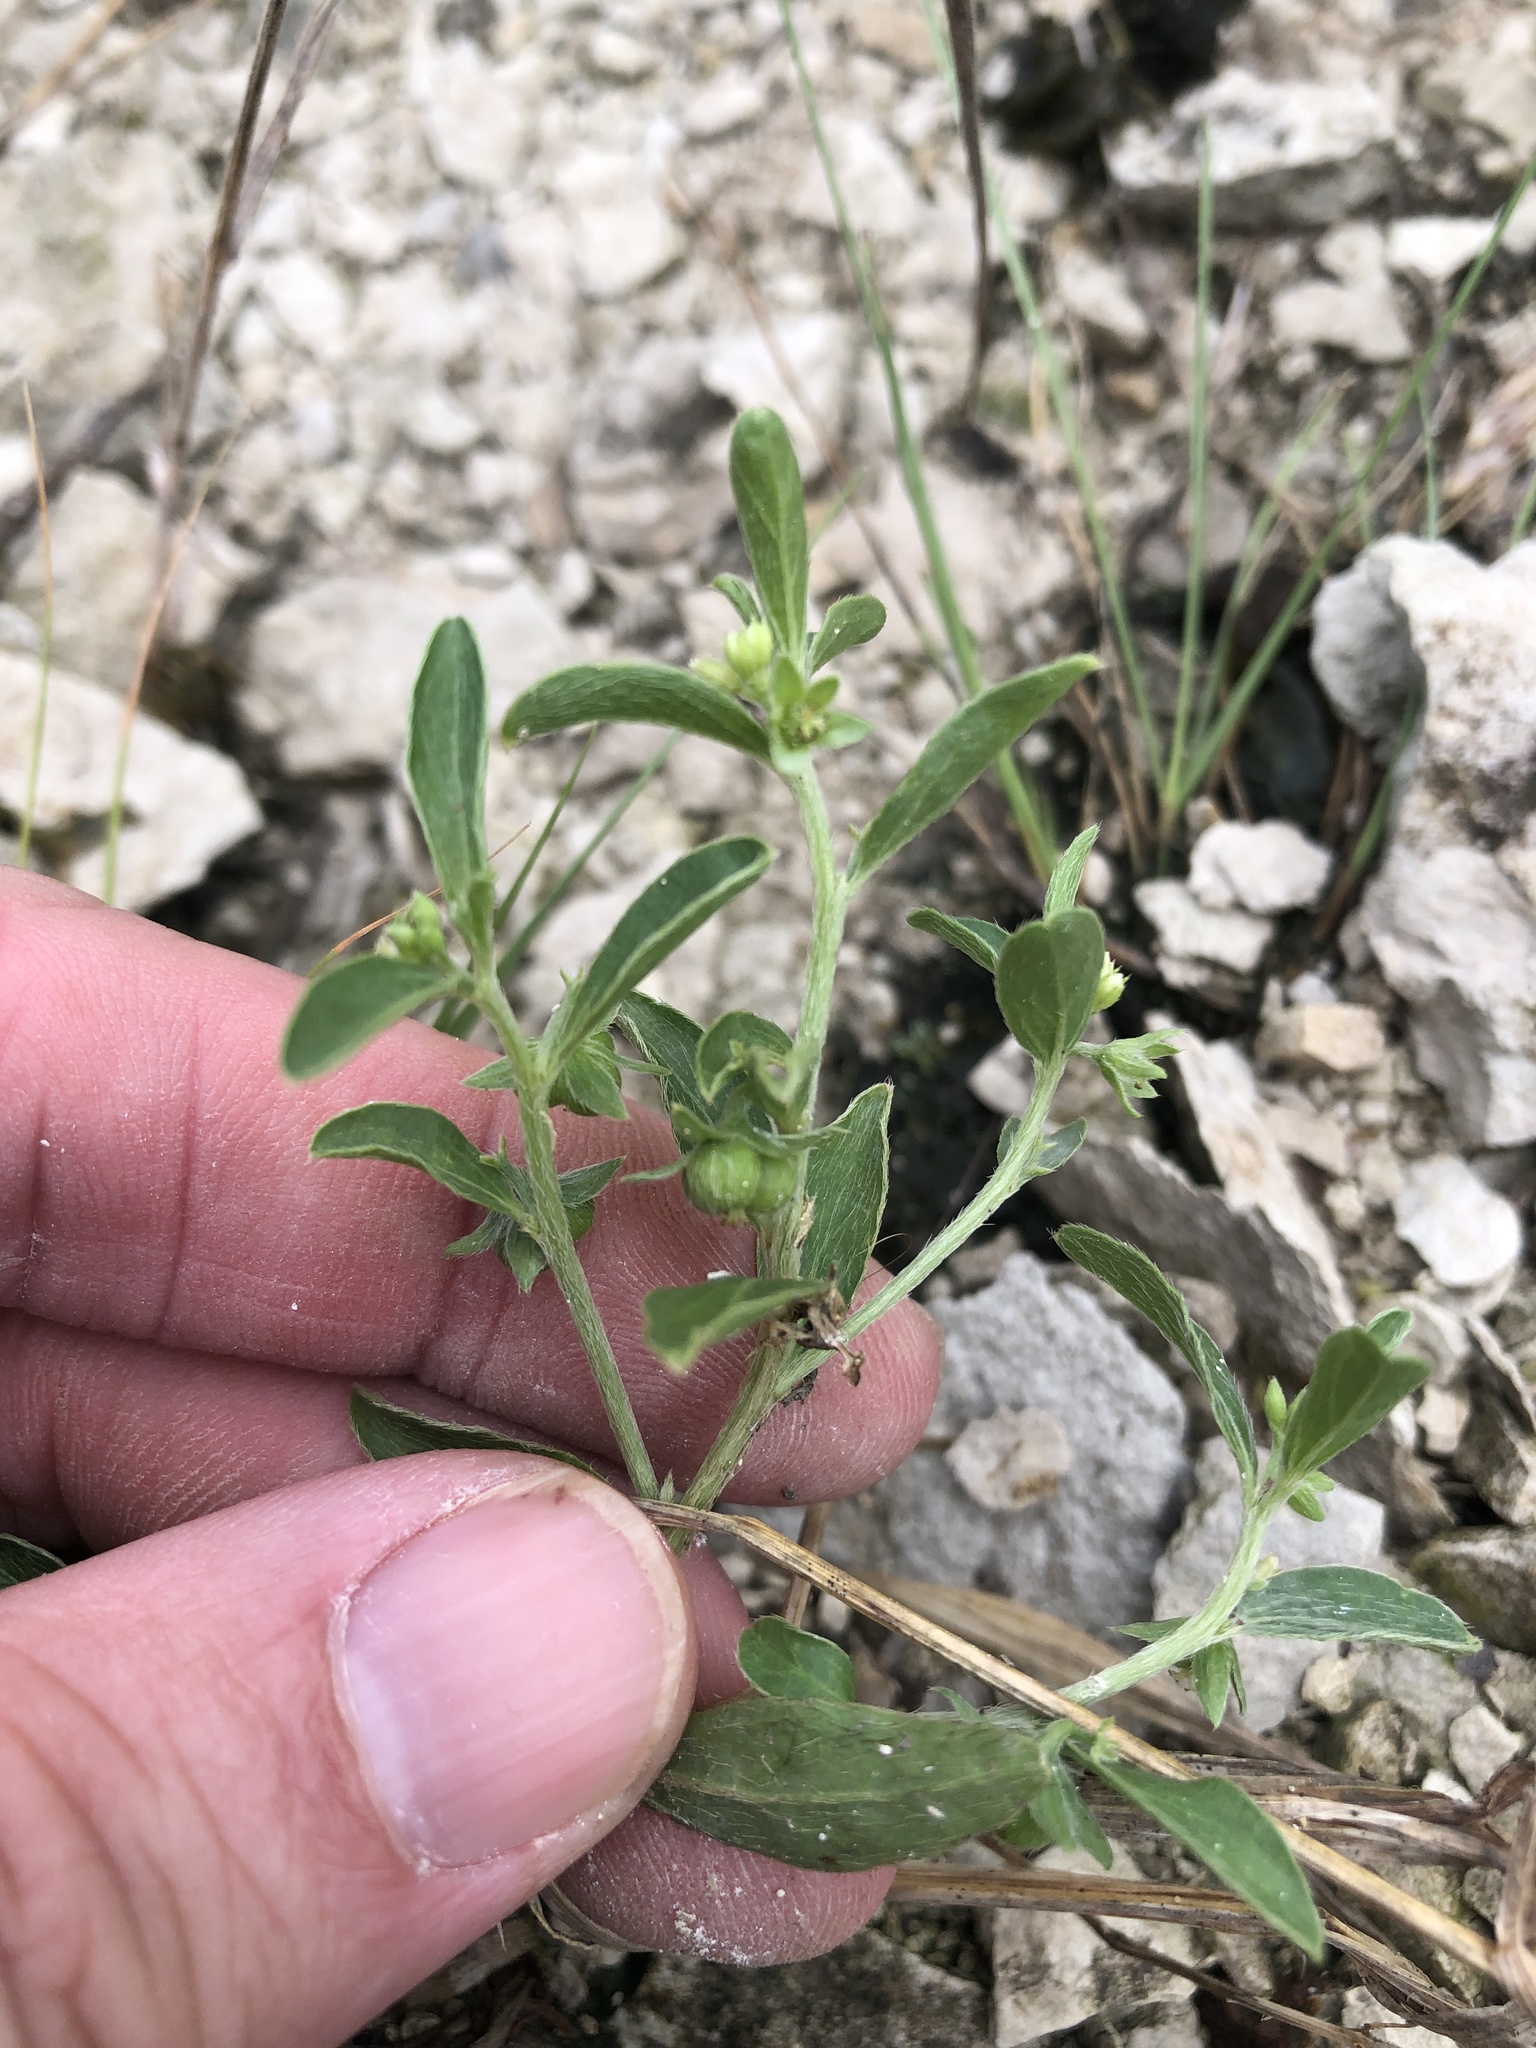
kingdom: Plantae
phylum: Tracheophyta
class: Magnoliopsida
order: Malpighiales
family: Euphorbiaceae
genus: Ditaxis
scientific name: Ditaxis humilis
